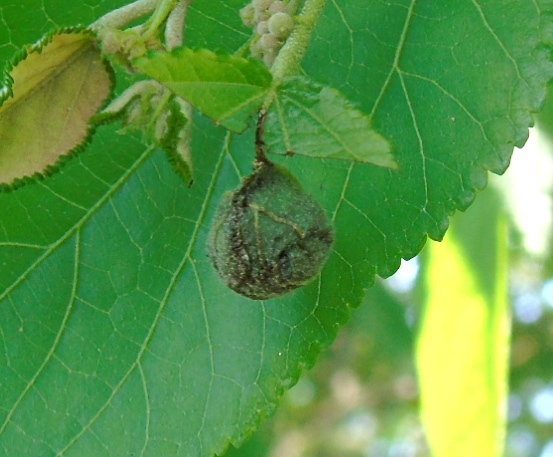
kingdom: Animalia
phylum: Arthropoda
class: Insecta
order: Coleoptera
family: Attelabidae
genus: Pilolabus
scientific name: Pilolabus
